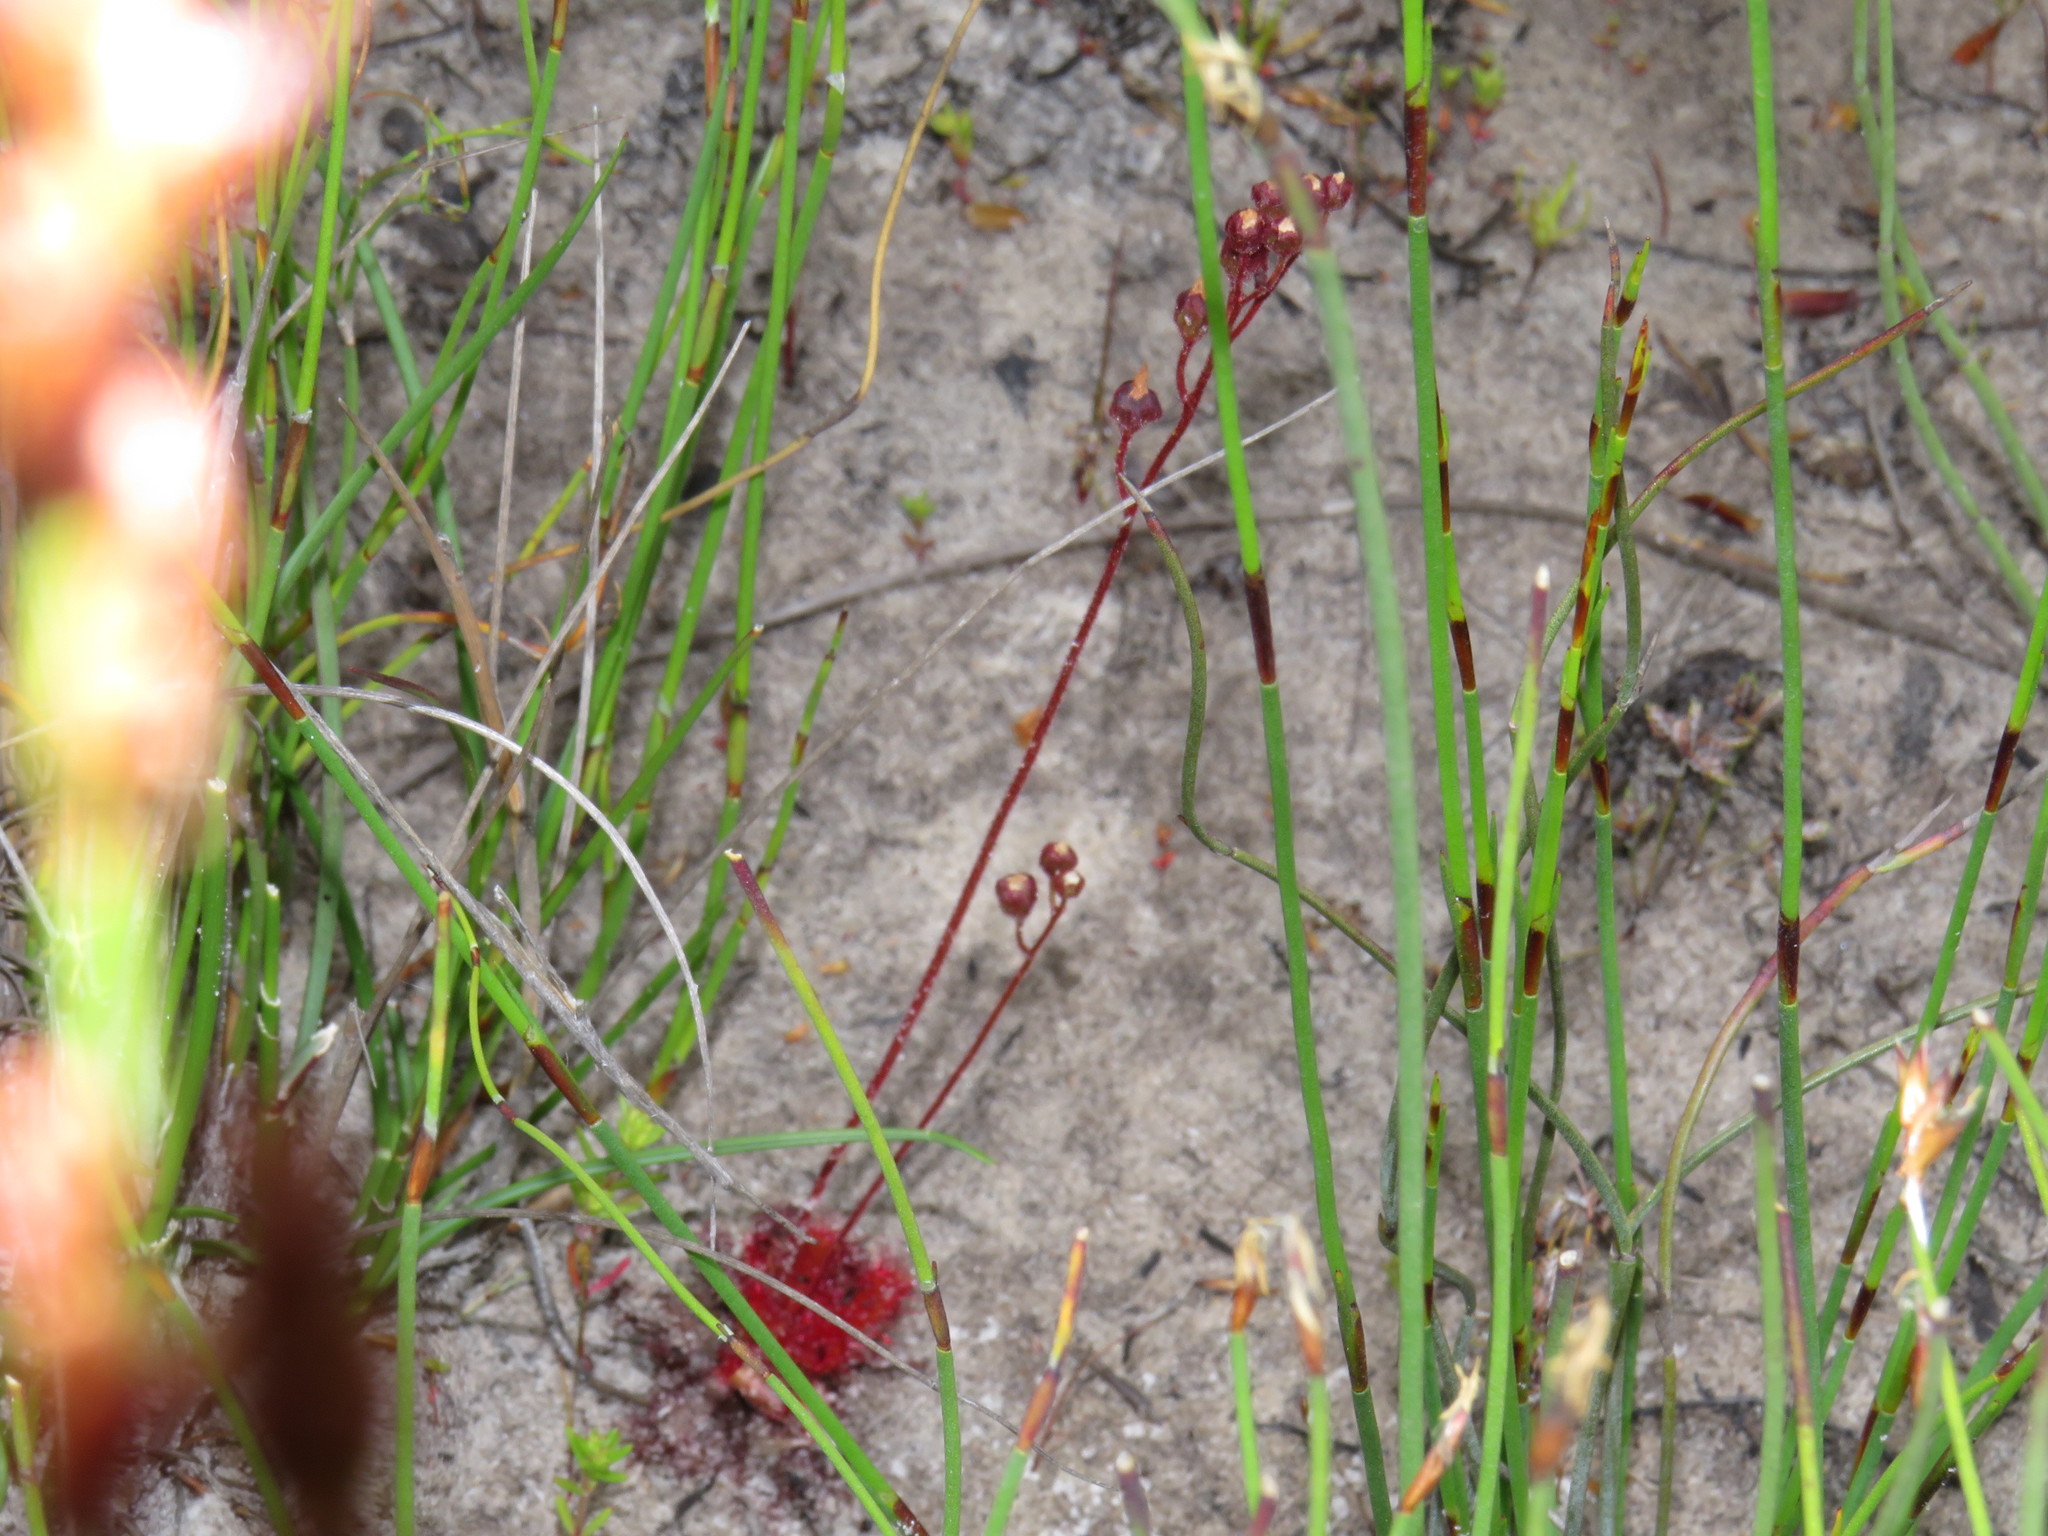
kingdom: Plantae
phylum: Tracheophyta
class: Magnoliopsida
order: Caryophyllales
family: Droseraceae
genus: Drosera
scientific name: Drosera trinervia
